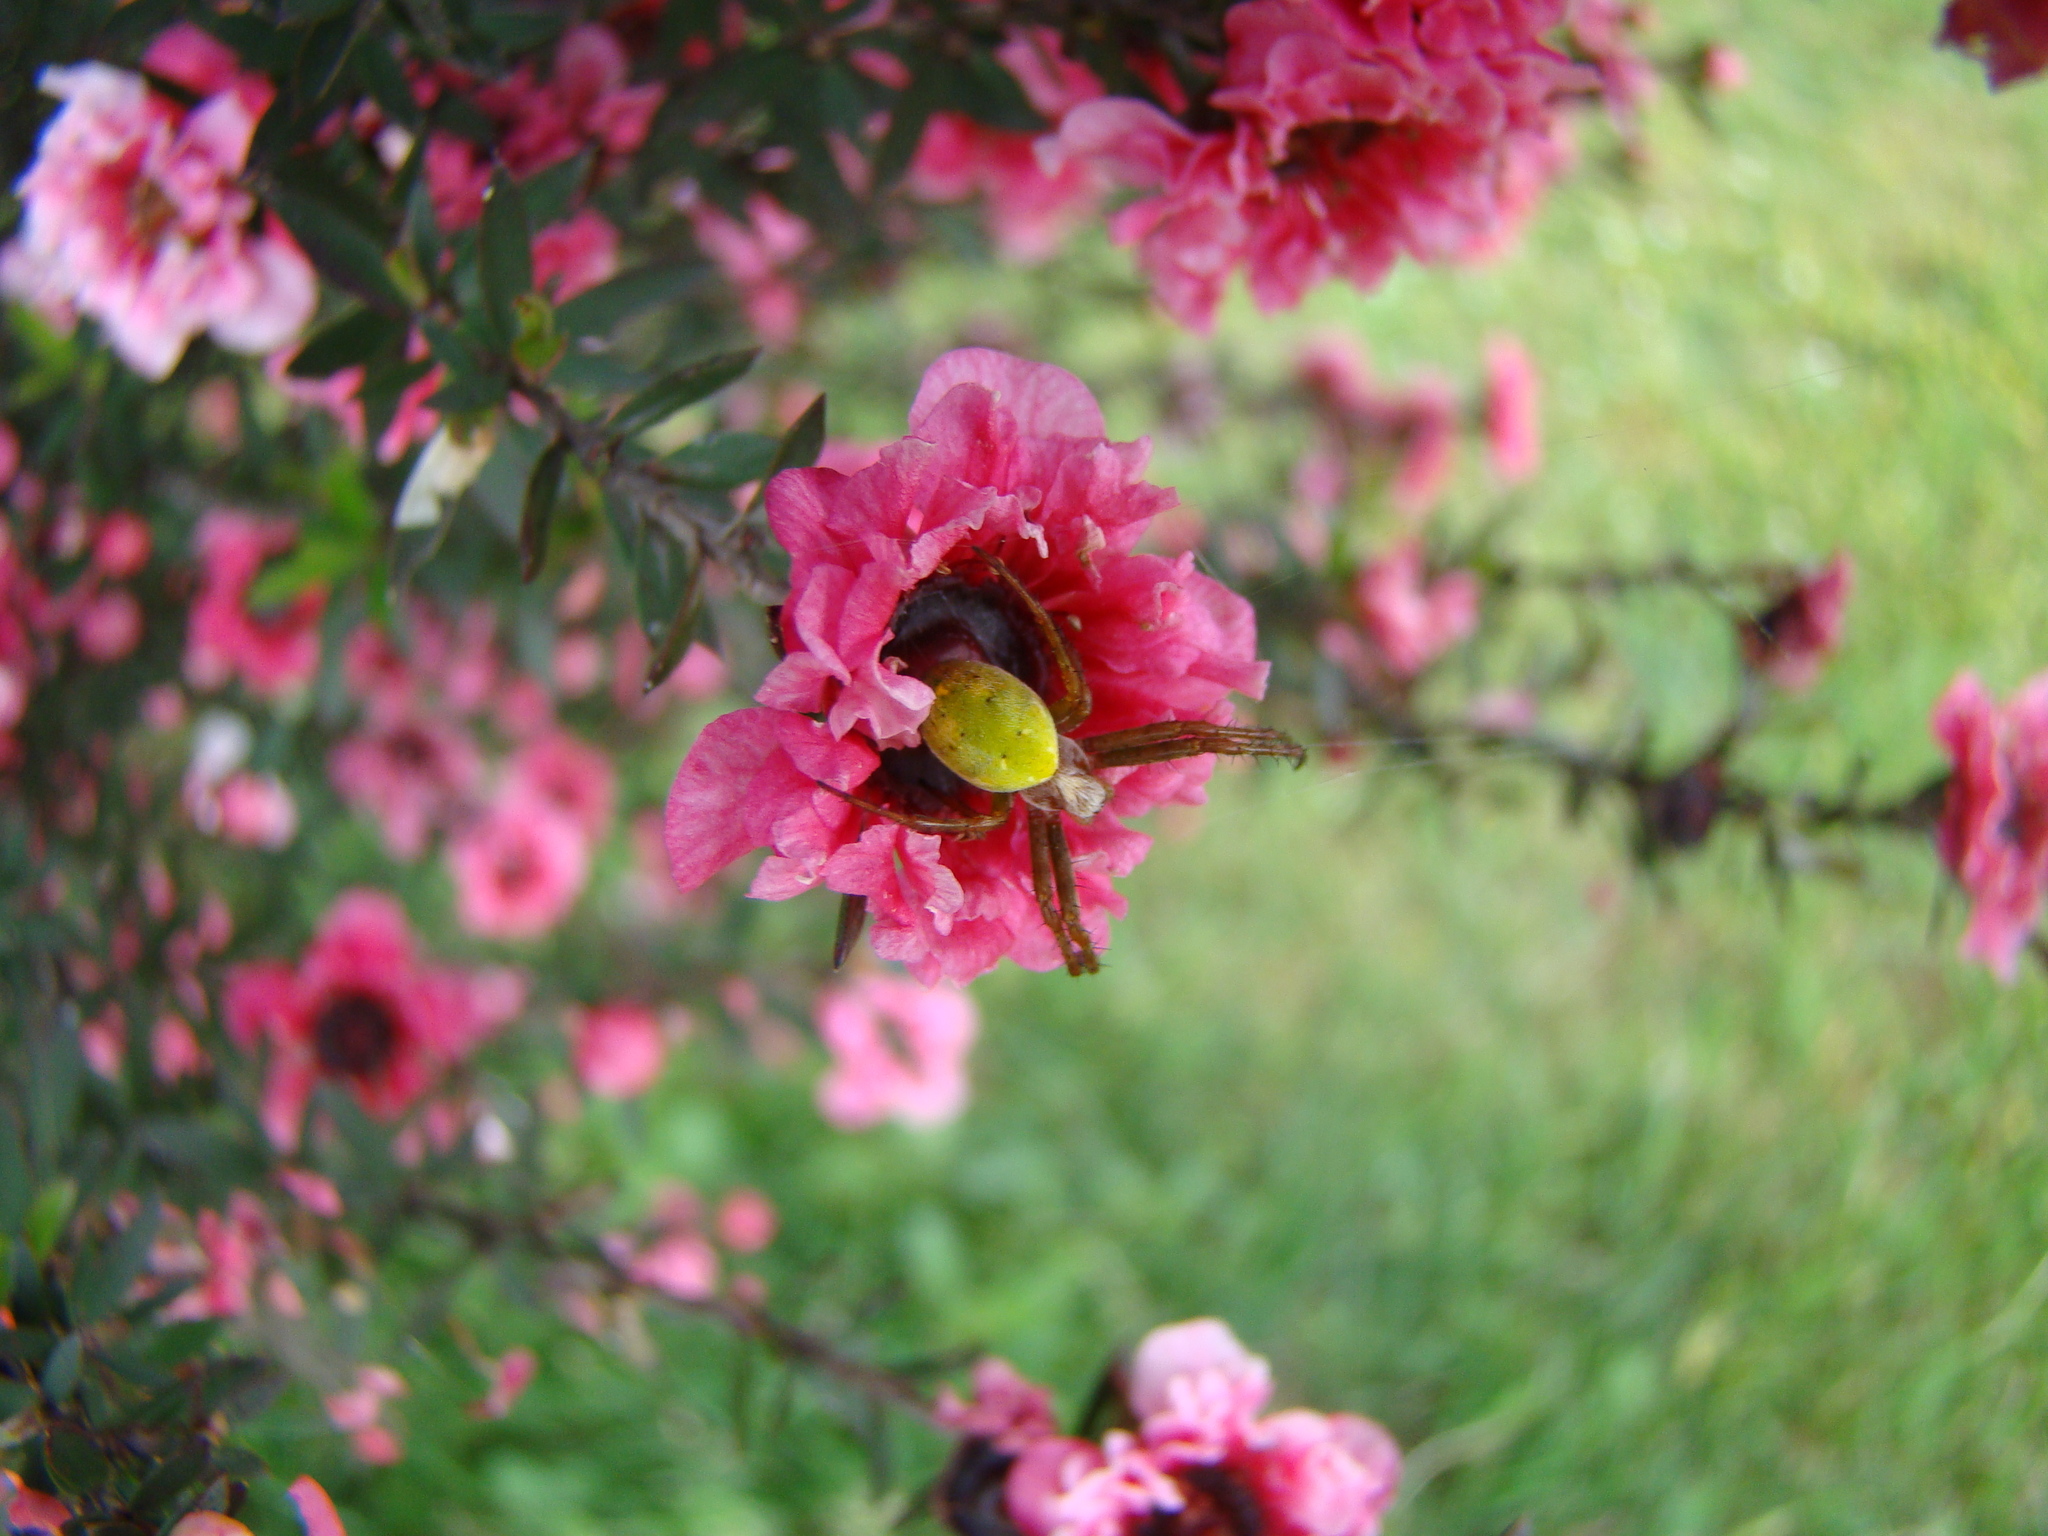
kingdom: Animalia
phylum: Arthropoda
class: Arachnida
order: Araneae
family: Araneidae
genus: Colaranea
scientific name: Colaranea viriditas
